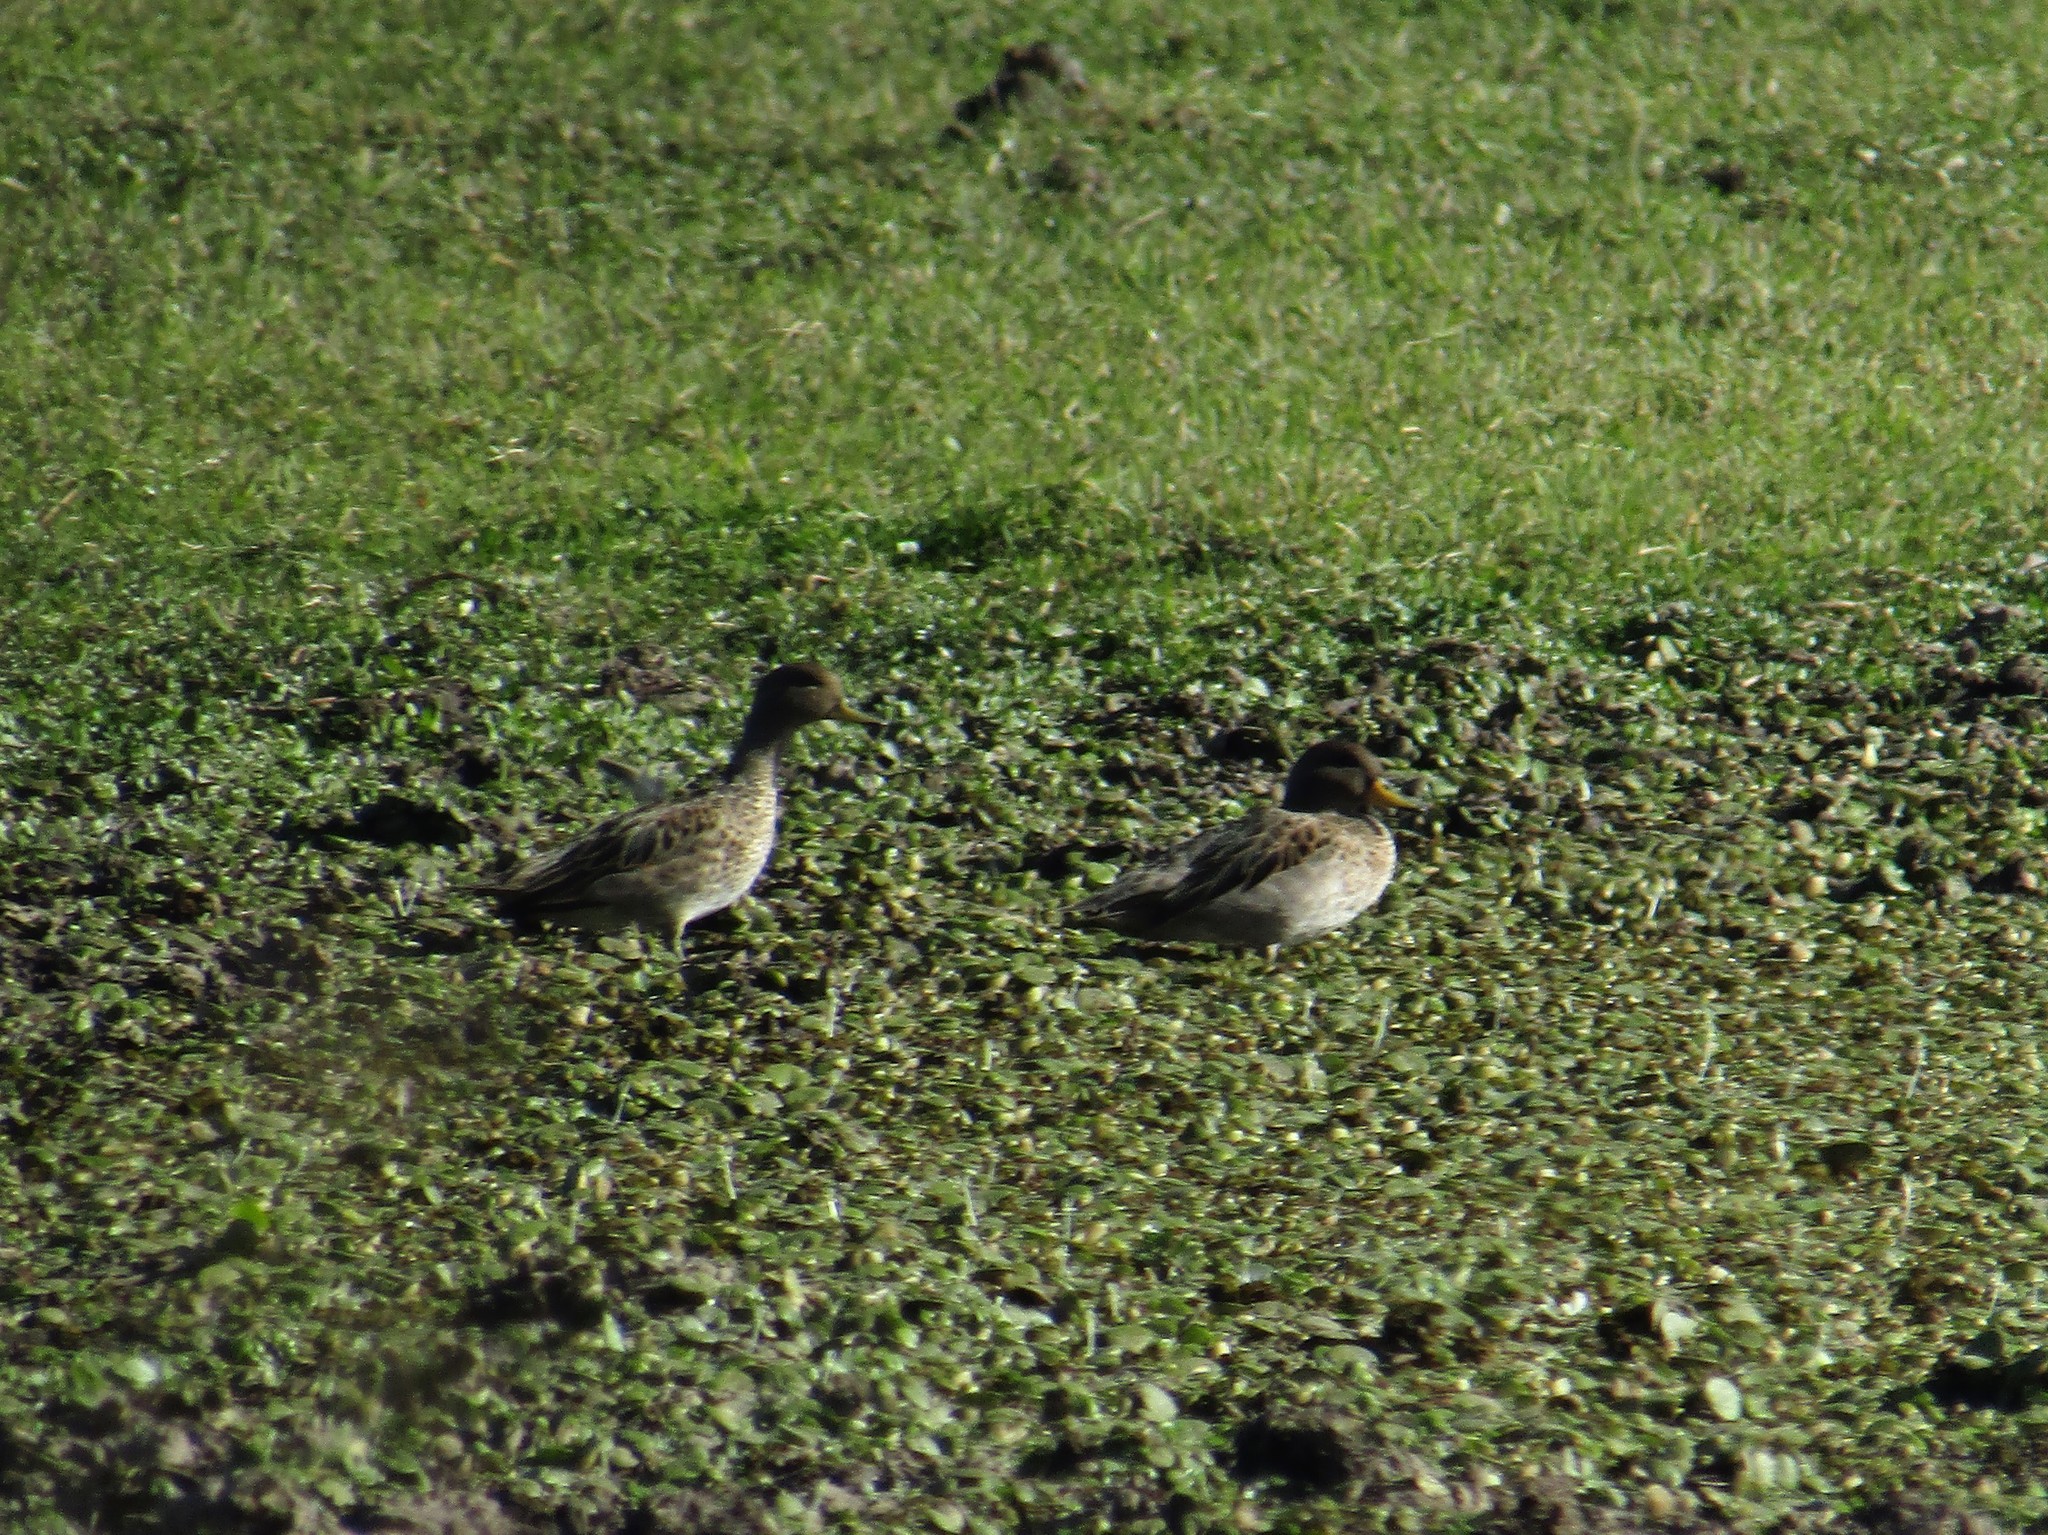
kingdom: Animalia
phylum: Chordata
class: Aves
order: Anseriformes
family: Anatidae
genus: Anas
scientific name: Anas flavirostris
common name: Yellow-billed teal
